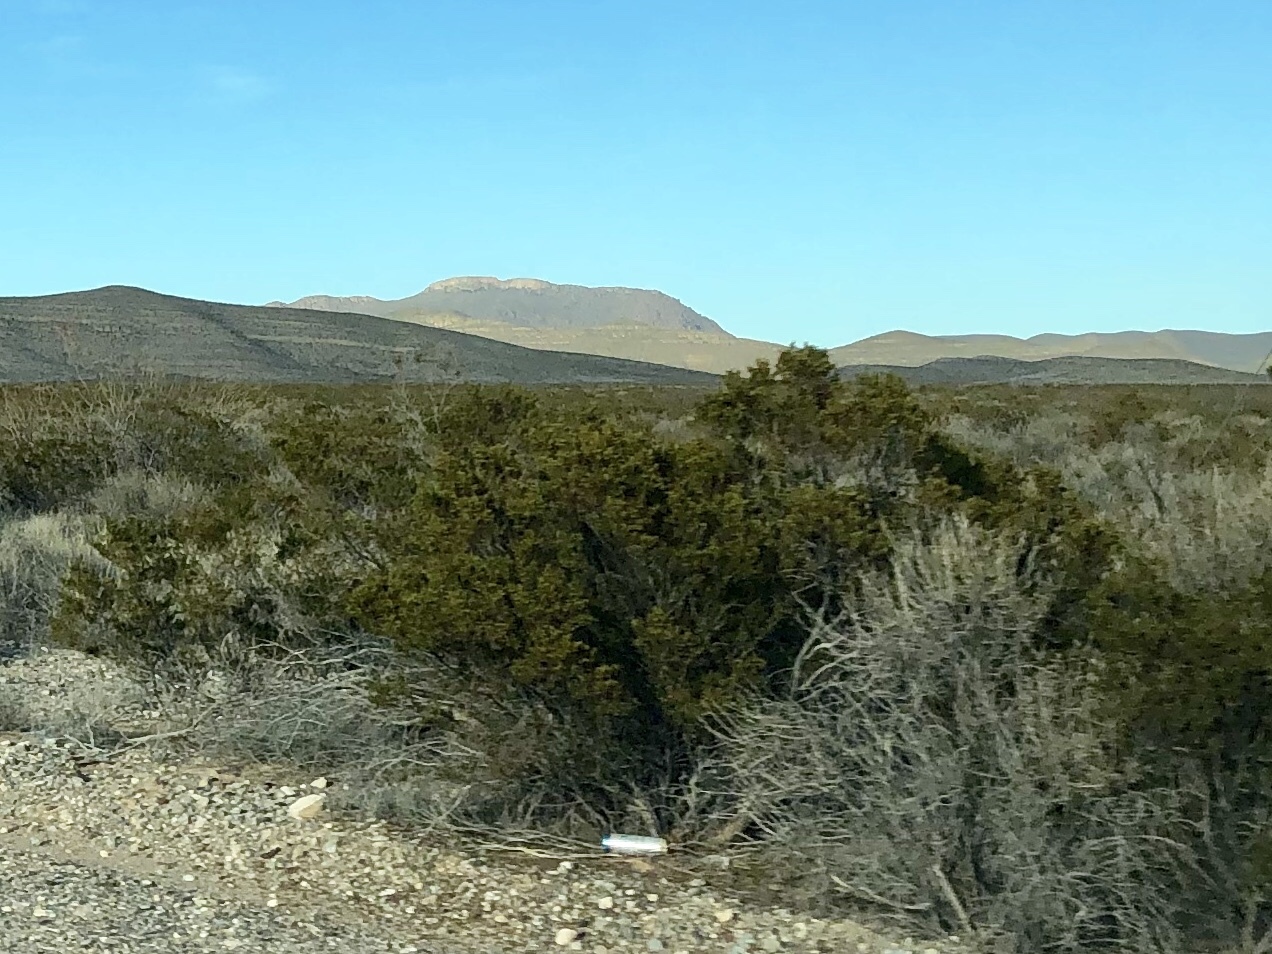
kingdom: Plantae
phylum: Tracheophyta
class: Magnoliopsida
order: Zygophyllales
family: Zygophyllaceae
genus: Larrea
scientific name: Larrea tridentata
